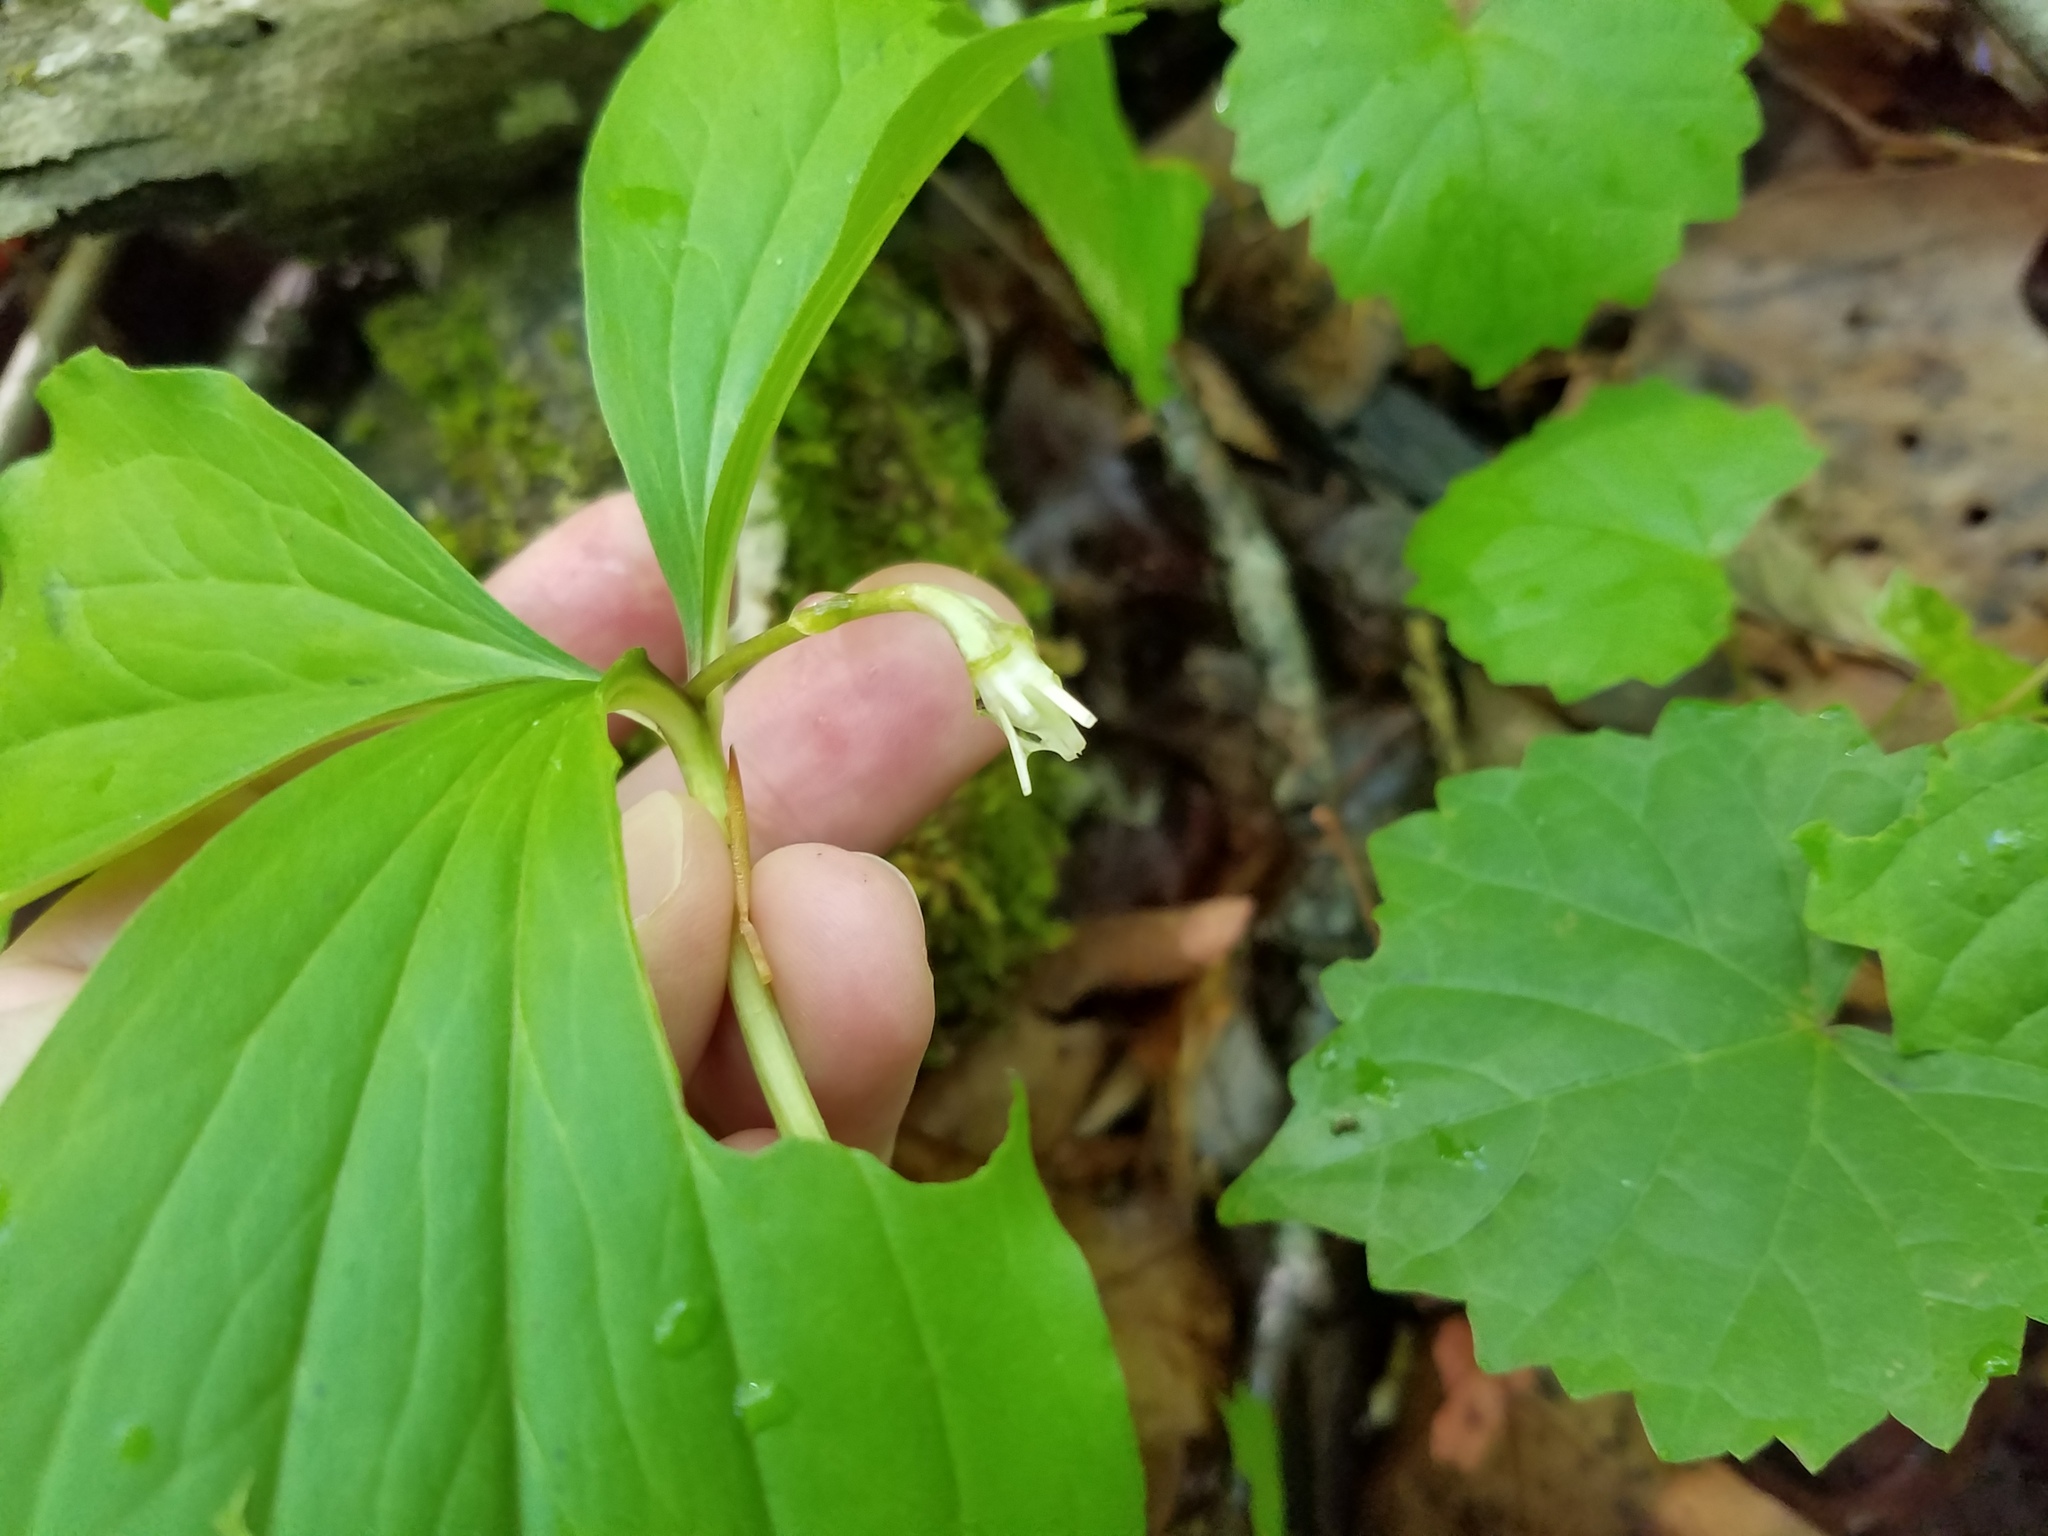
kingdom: Plantae
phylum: Tracheophyta
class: Liliopsida
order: Liliales
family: Melanthiaceae
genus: Trillium
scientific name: Trillium catesbaei
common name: Bashful trillium
